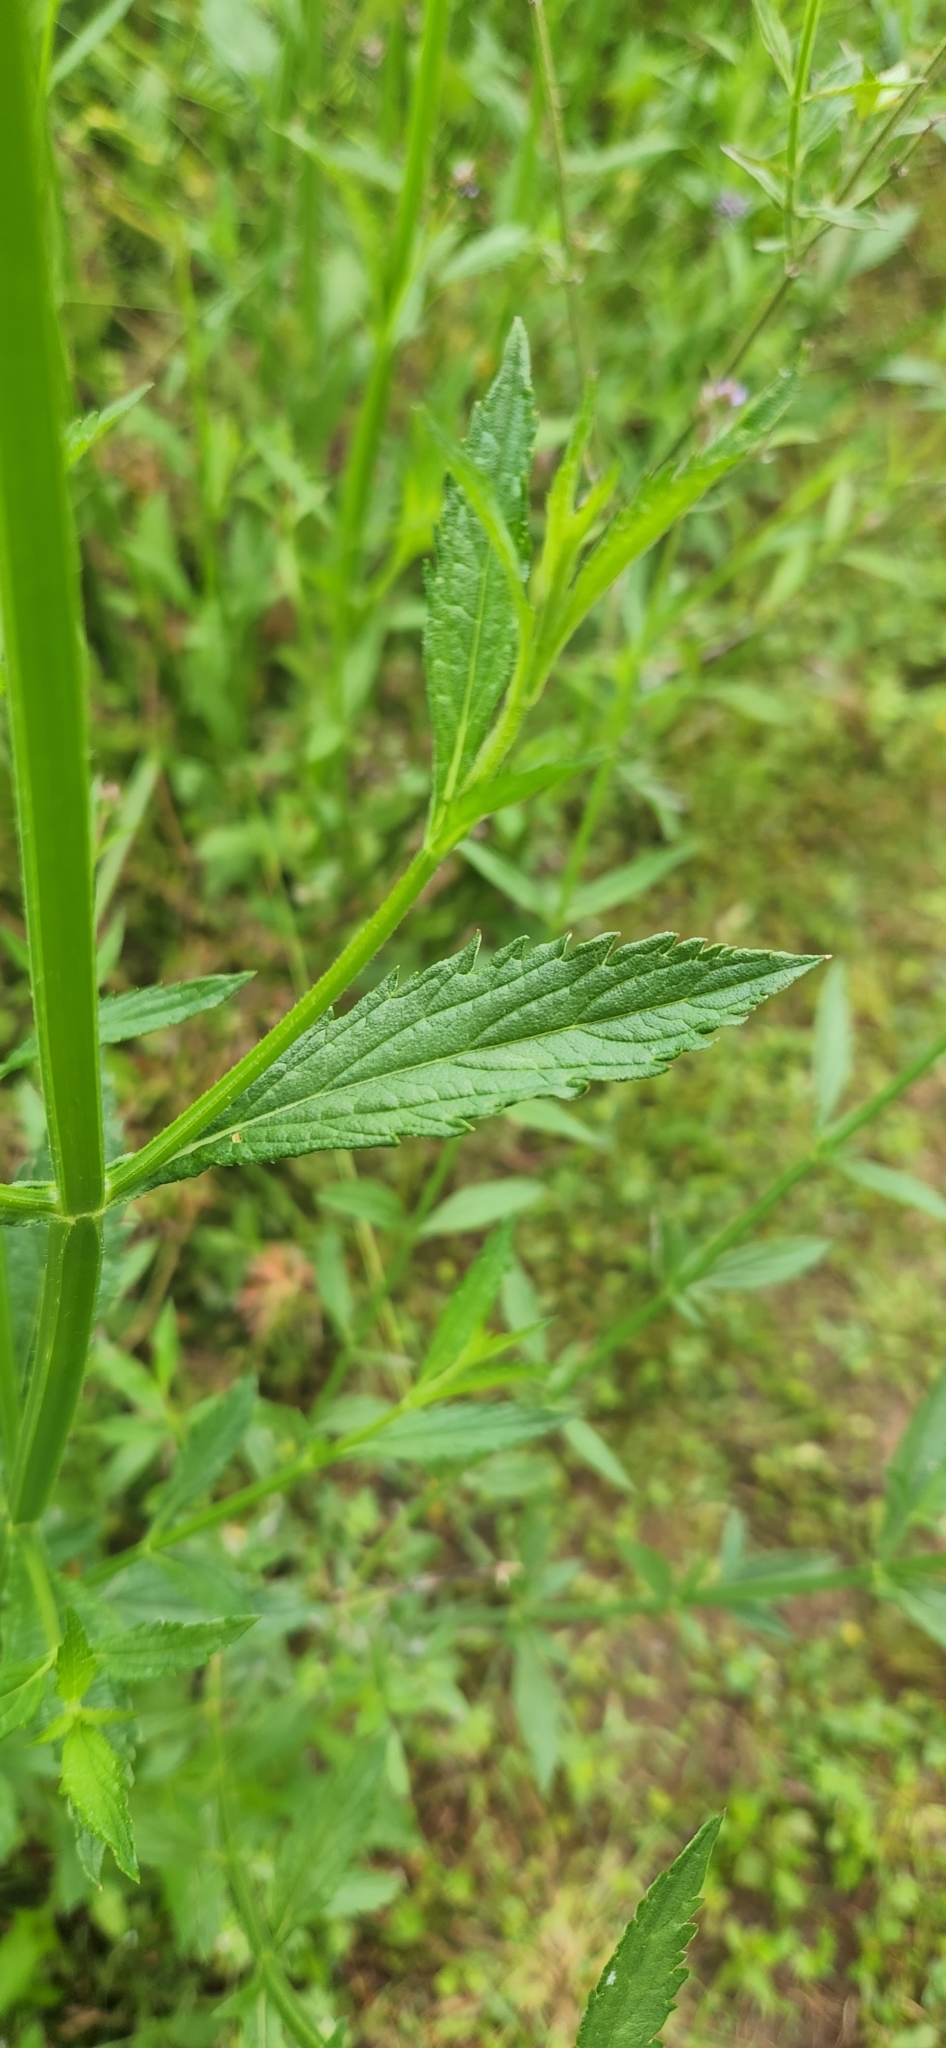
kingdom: Plantae
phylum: Tracheophyta
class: Magnoliopsida
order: Lamiales
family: Verbenaceae
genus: Verbena
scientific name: Verbena brasiliensis
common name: Brazilian vervain
